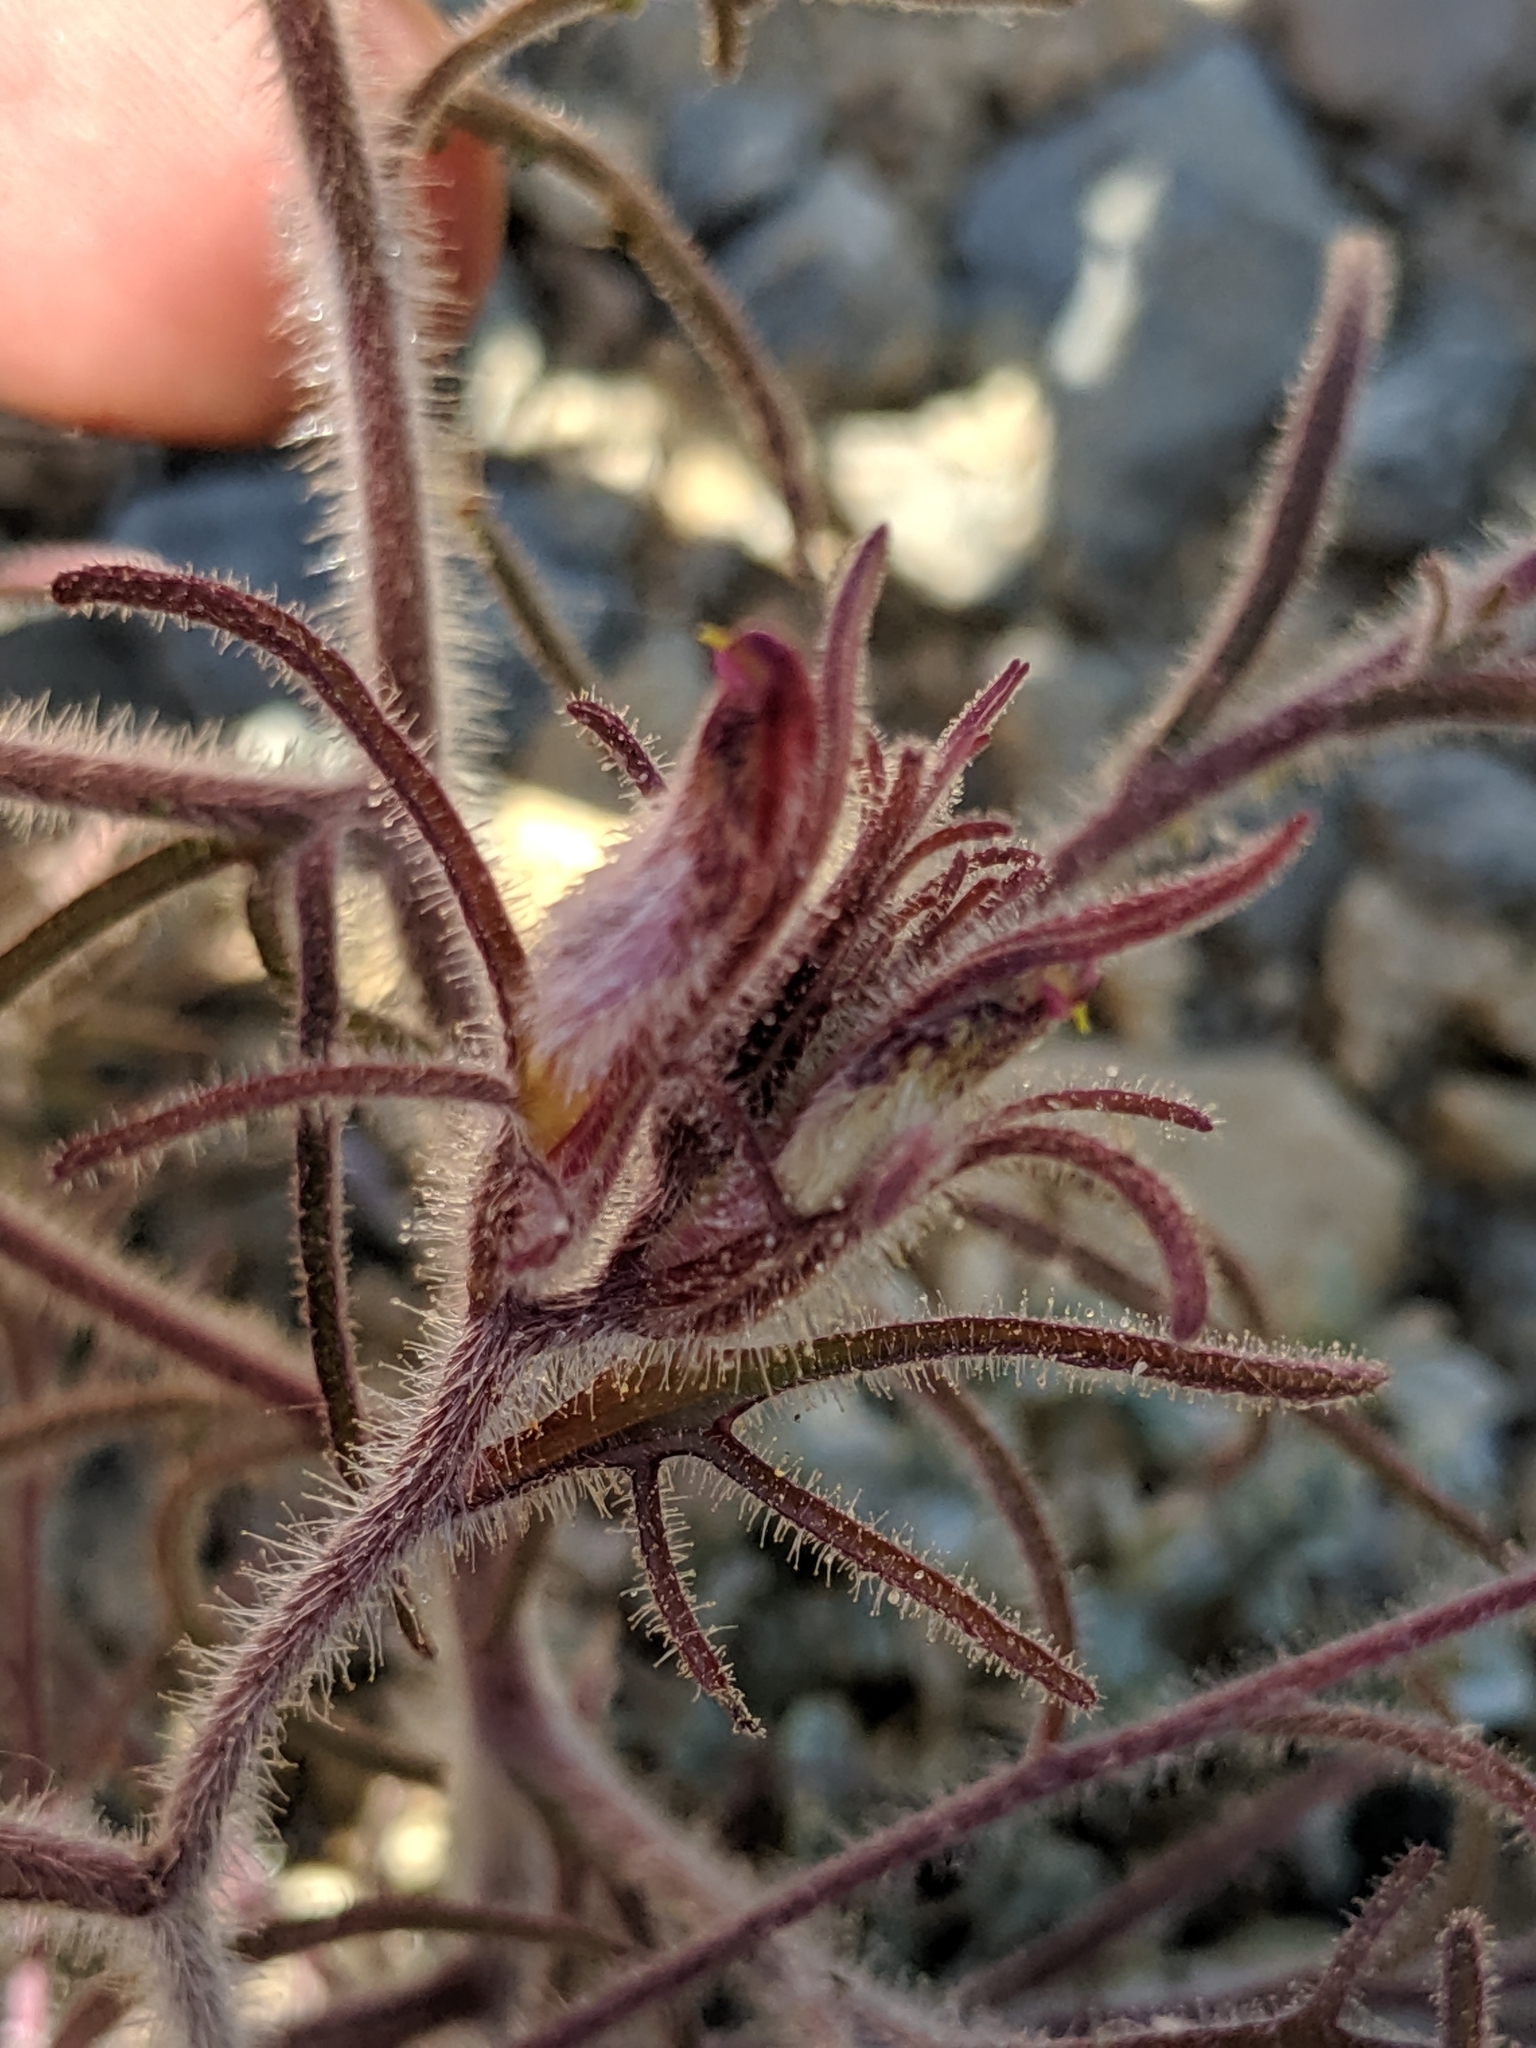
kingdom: Plantae
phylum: Tracheophyta
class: Magnoliopsida
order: Lamiales
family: Orobanchaceae
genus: Cordylanthus
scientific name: Cordylanthus kingii
